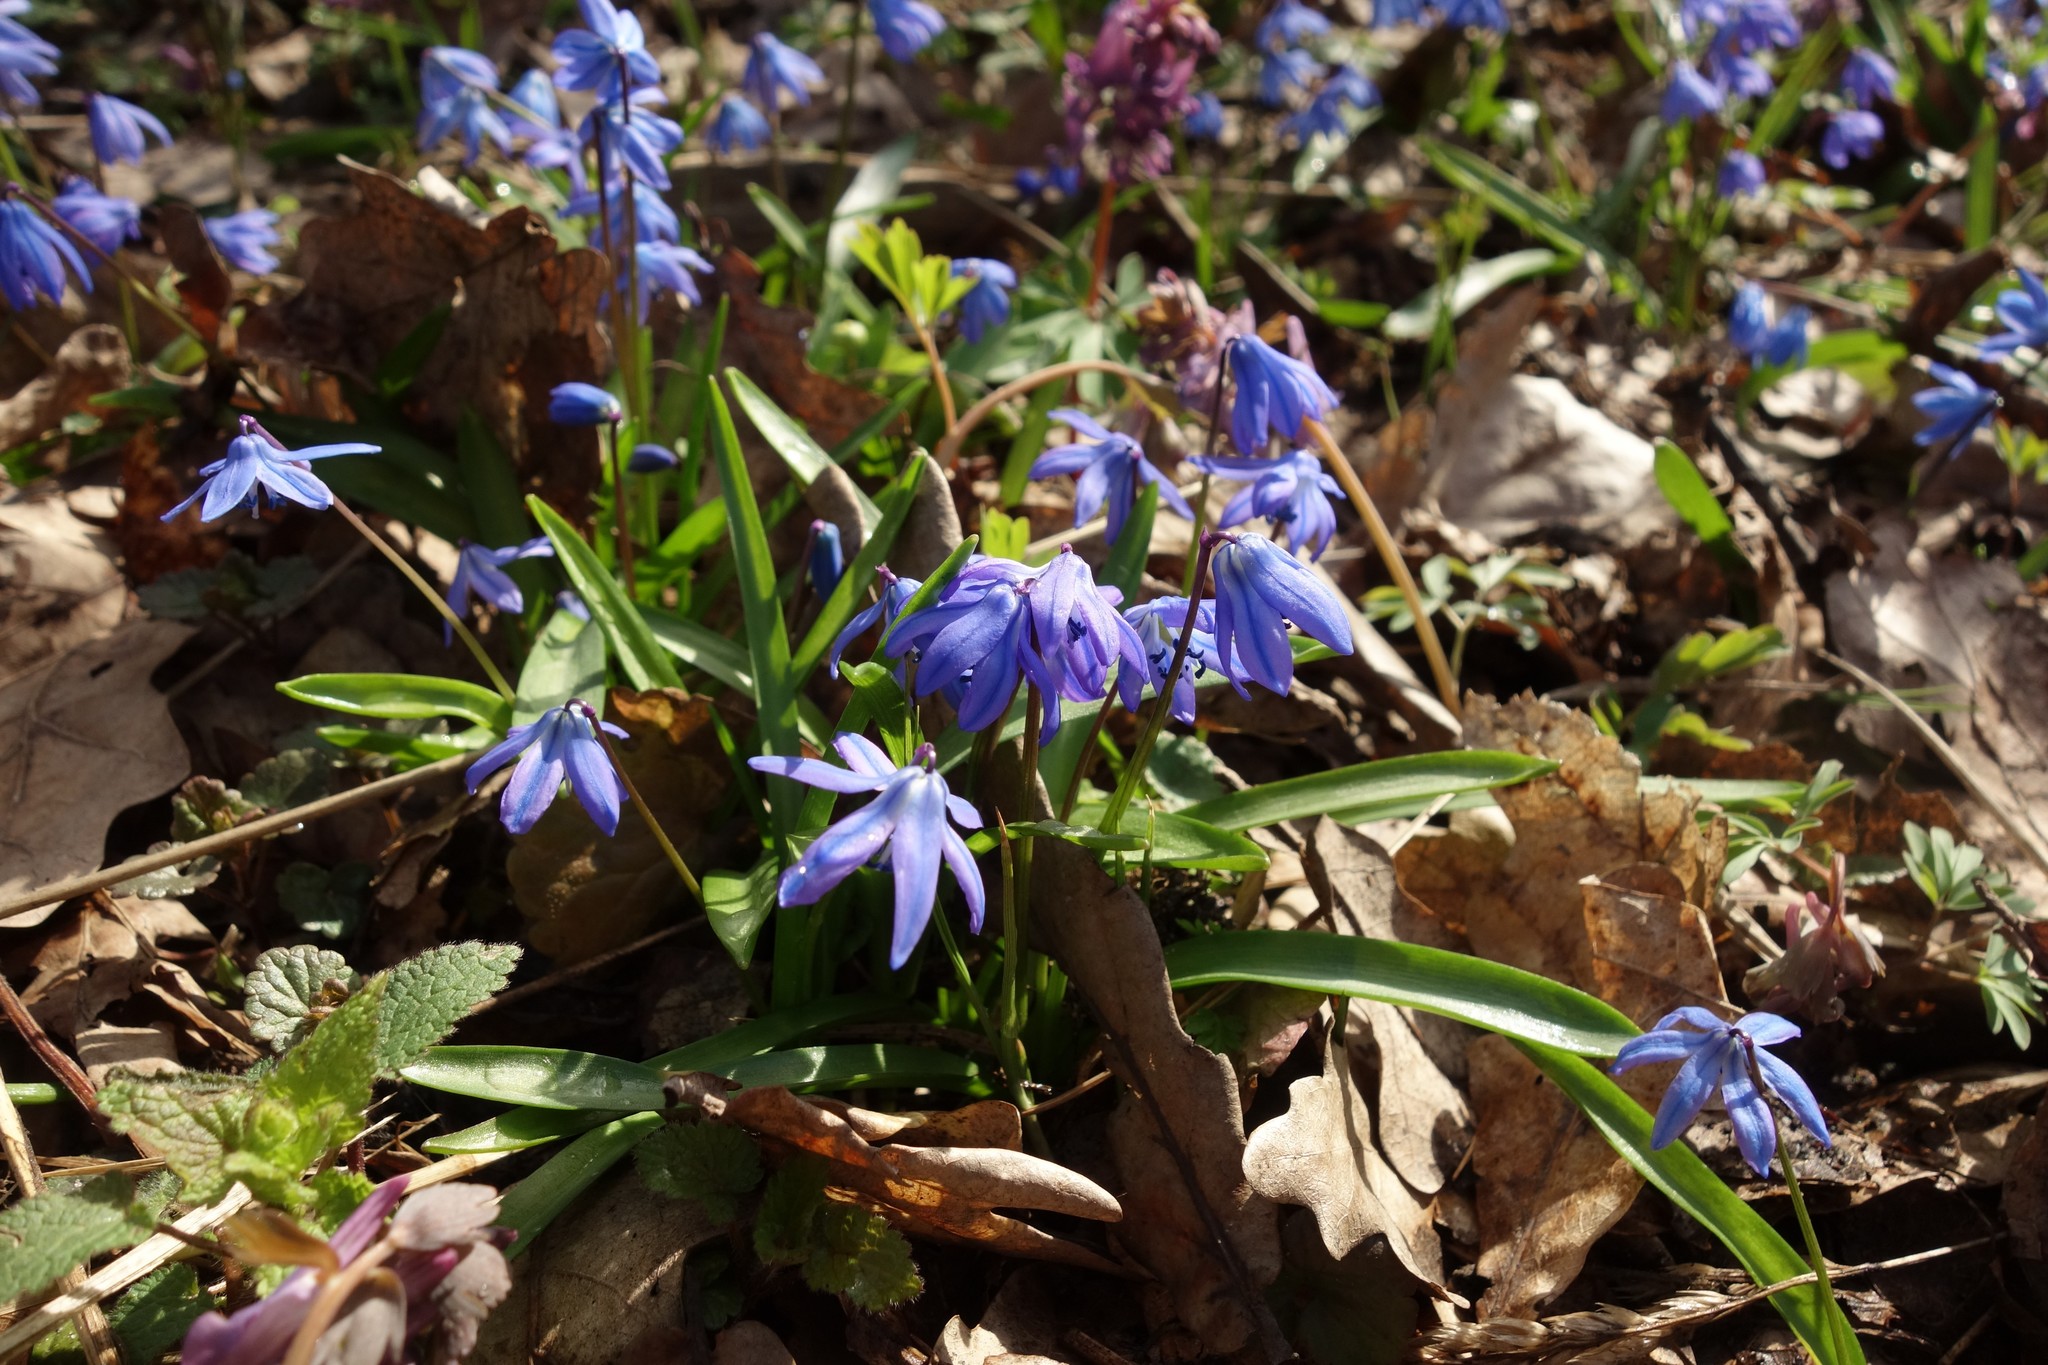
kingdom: Plantae
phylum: Tracheophyta
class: Liliopsida
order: Asparagales
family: Asparagaceae
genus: Scilla
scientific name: Scilla siberica
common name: Siberian squill
